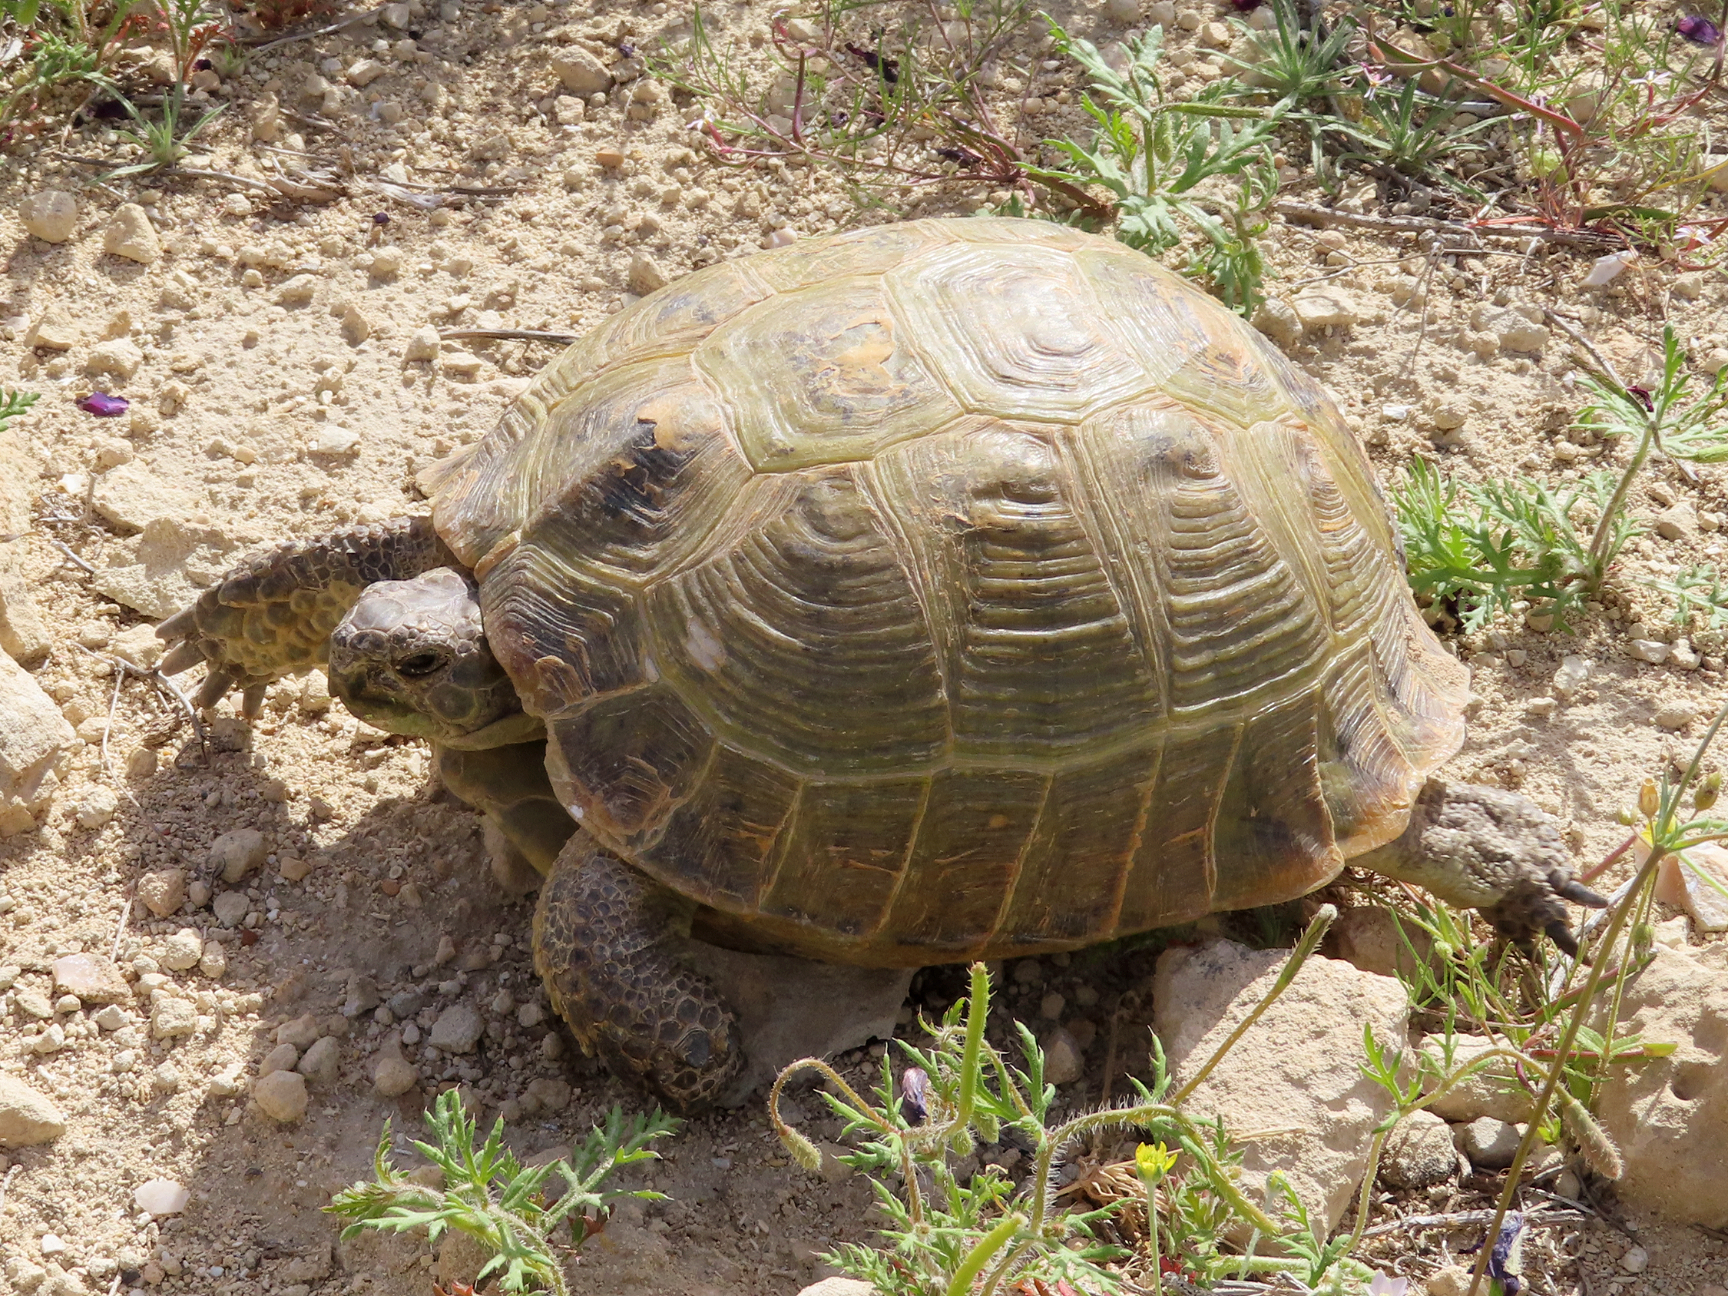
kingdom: Animalia
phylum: Chordata
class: Testudines
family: Testudinidae
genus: Testudo
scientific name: Testudo horsfieldii
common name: Central asia tortoise
